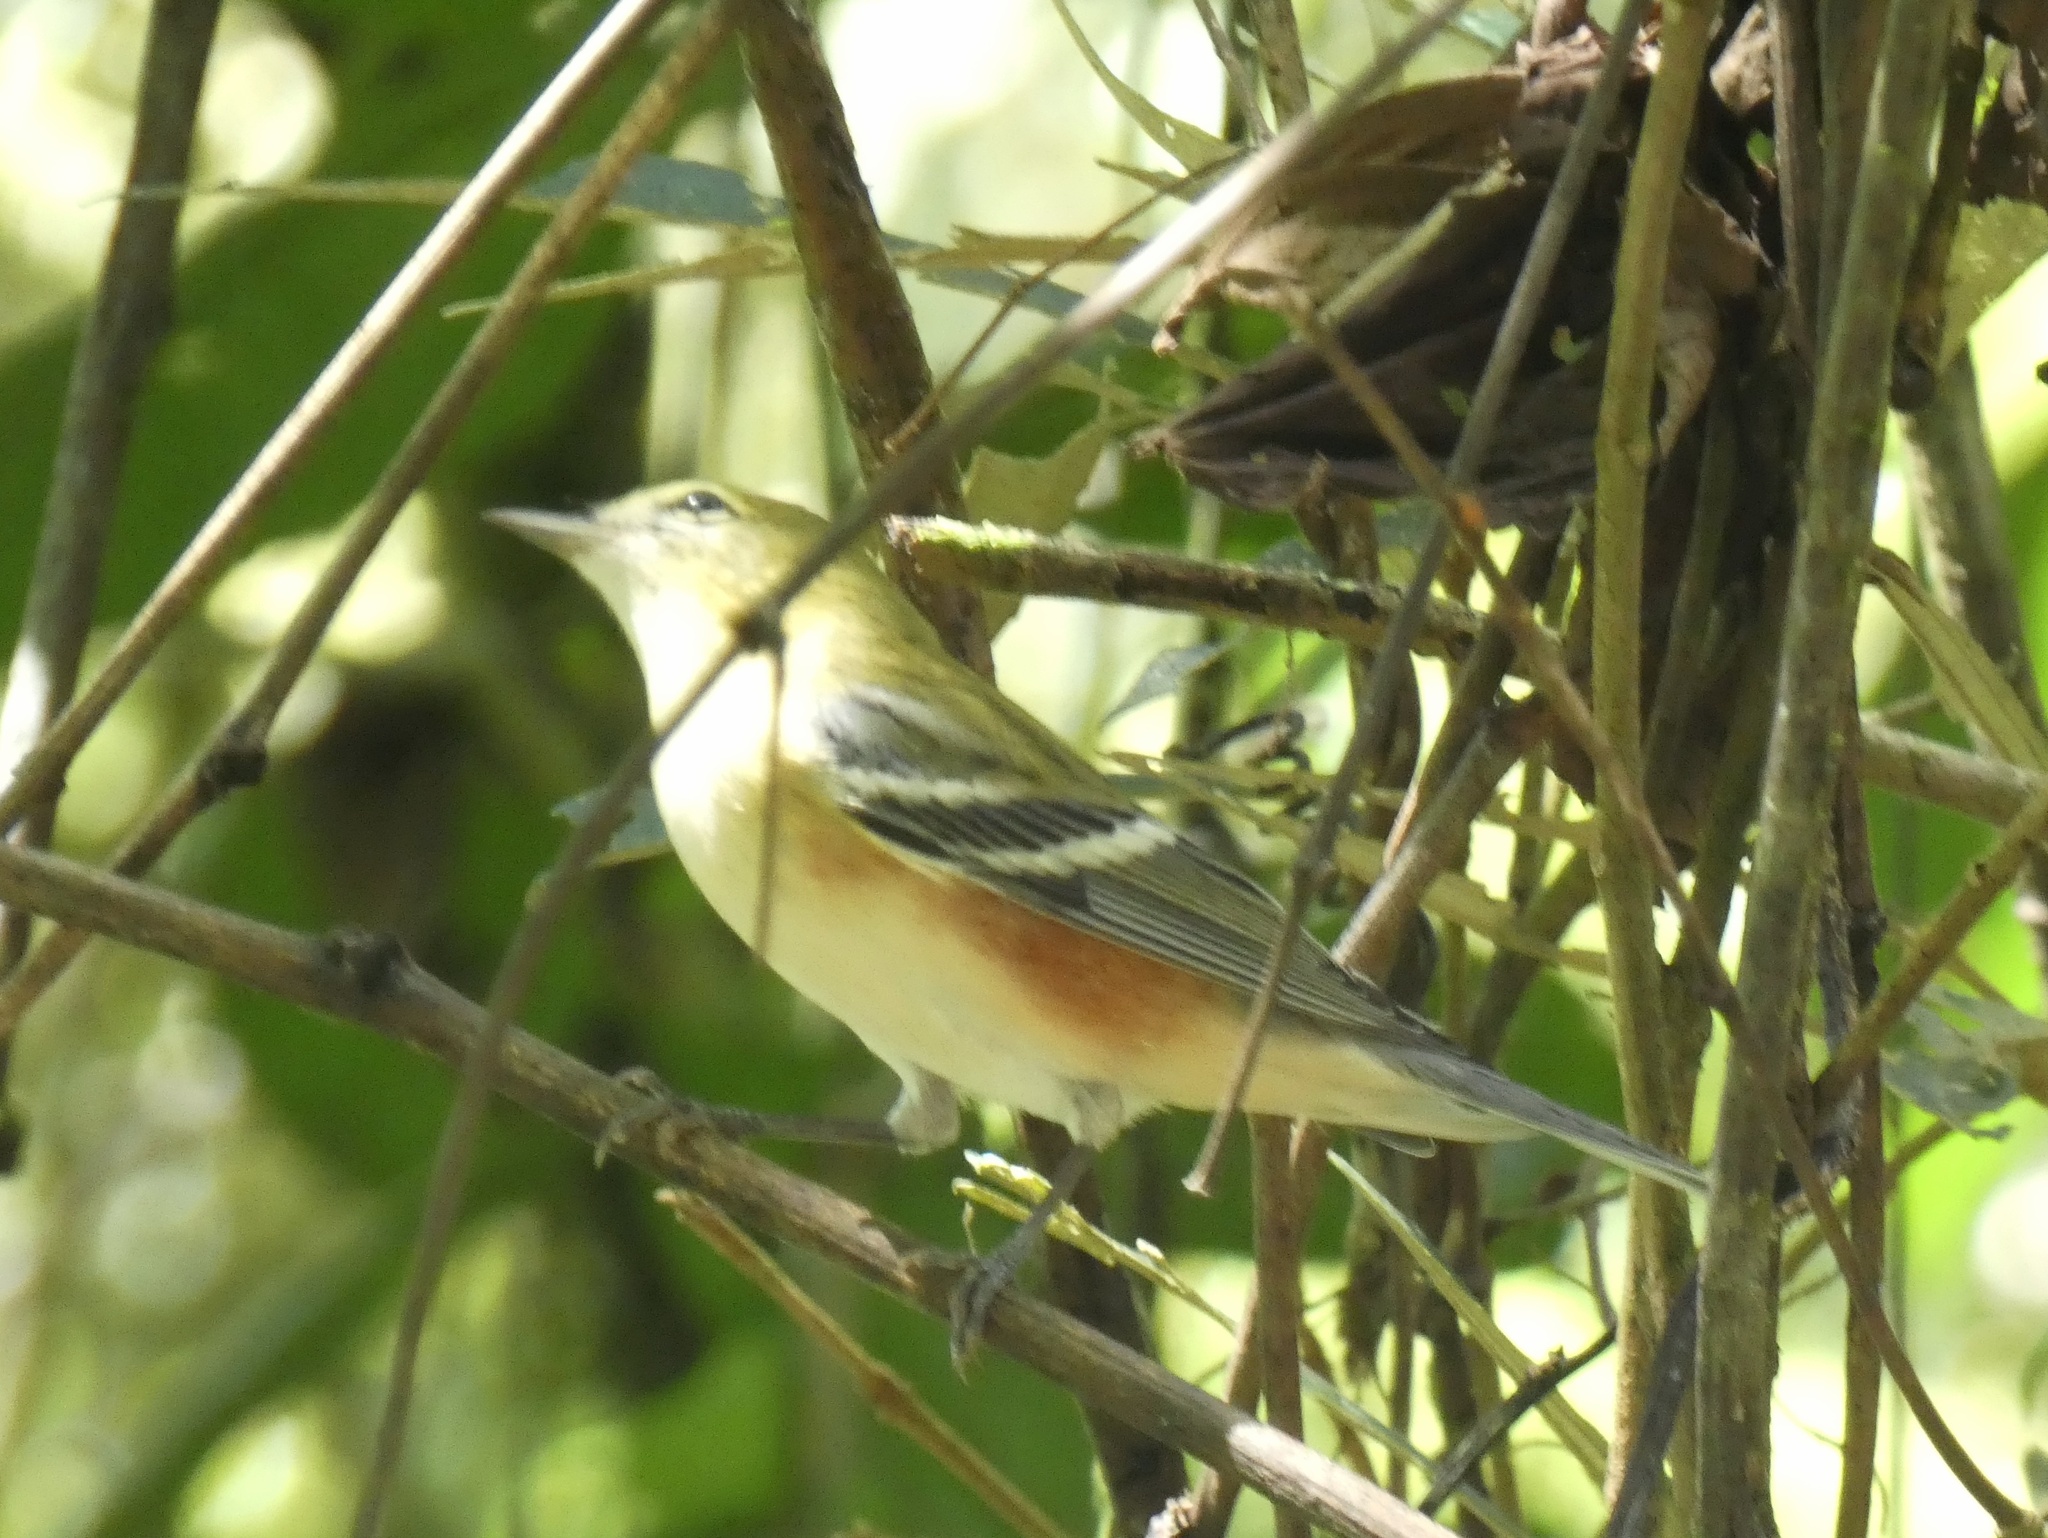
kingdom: Animalia
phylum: Chordata
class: Aves
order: Passeriformes
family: Parulidae
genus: Setophaga
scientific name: Setophaga castanea
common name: Bay-breasted warbler
